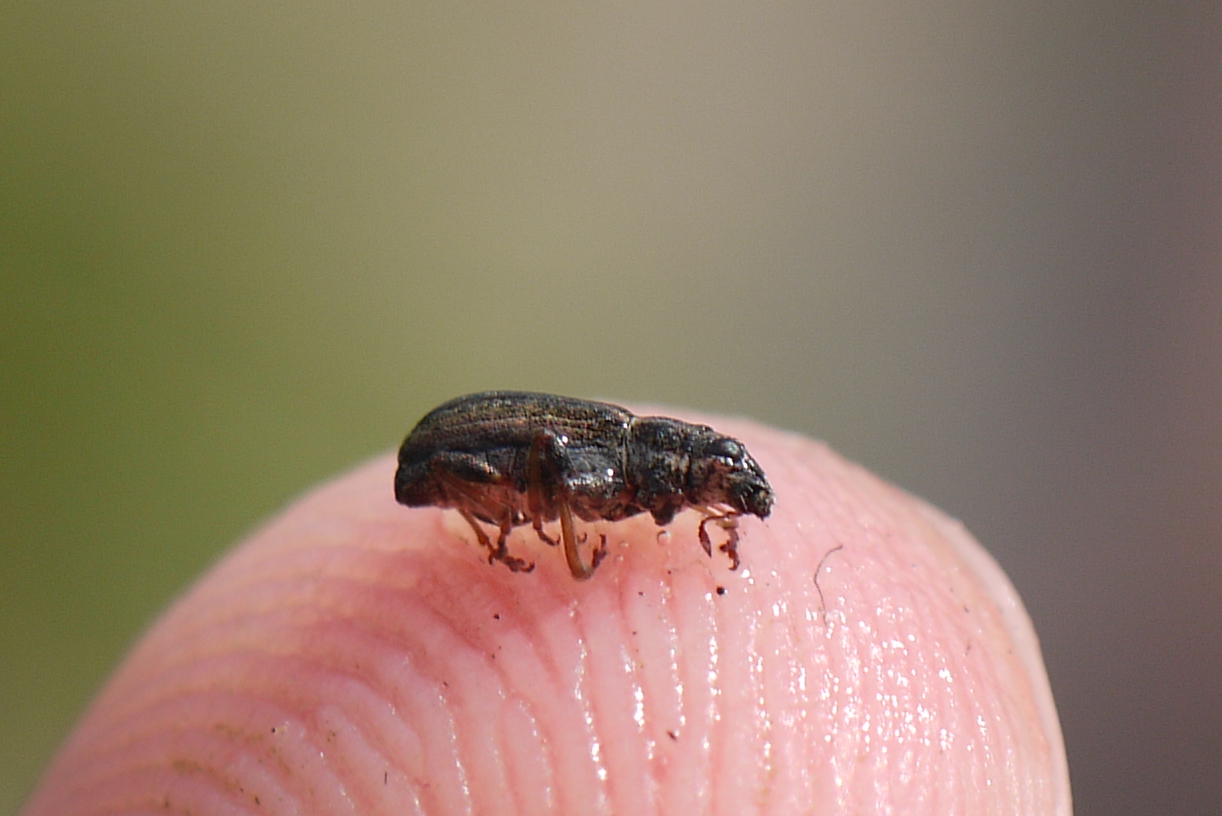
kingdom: Animalia
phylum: Arthropoda
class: Insecta
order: Coleoptera
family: Curculionidae
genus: Sitona
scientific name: Sitona lineatus
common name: Weevil
